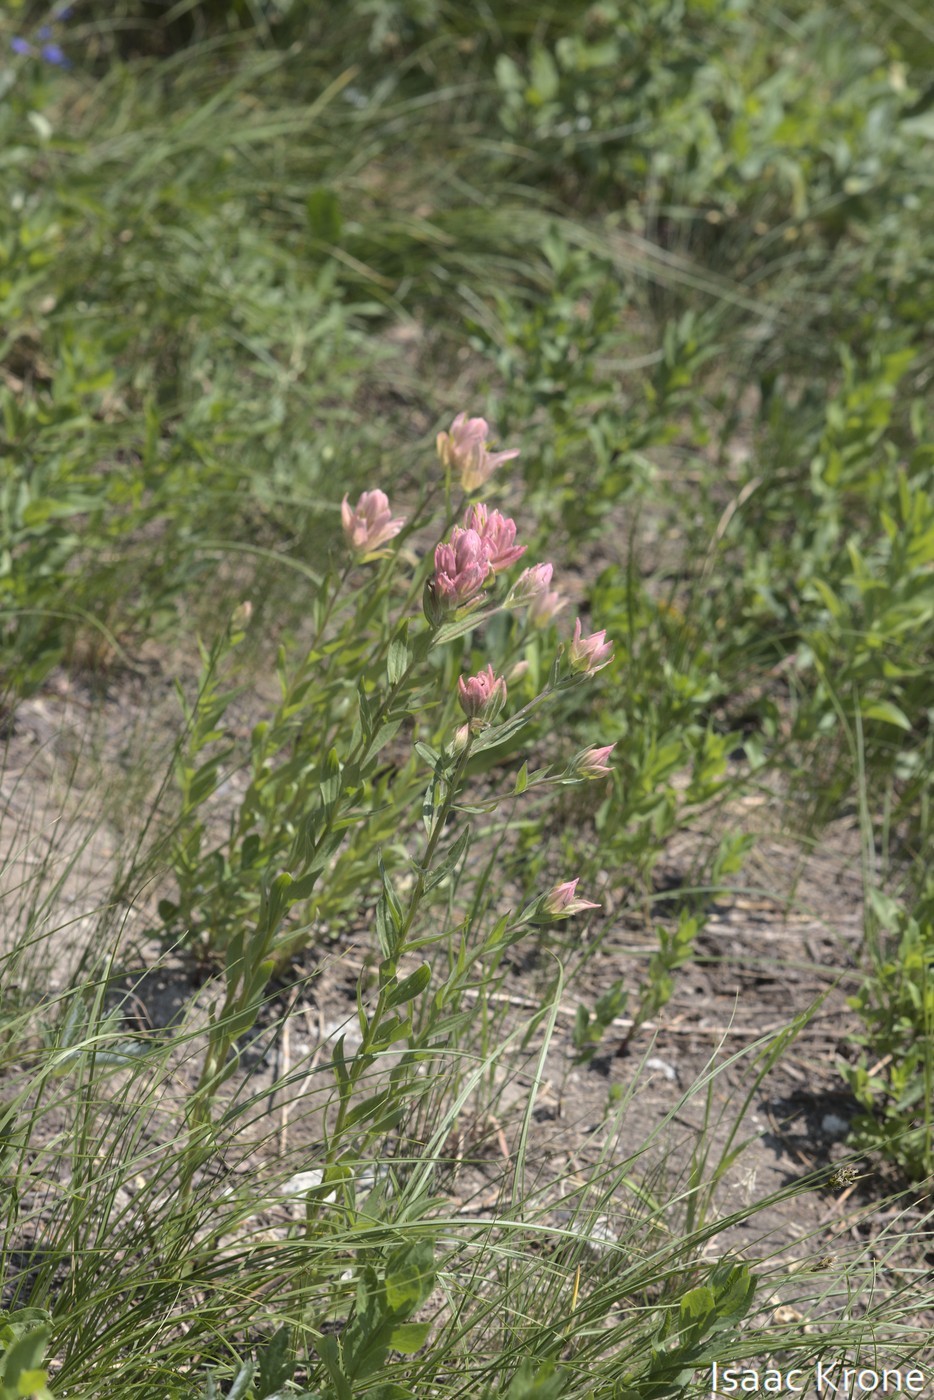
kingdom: Plantae
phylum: Tracheophyta
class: Magnoliopsida
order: Lamiales
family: Orobanchaceae
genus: Castilleja
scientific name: Castilleja rhexifolia
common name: Rocky mountain paintbrush
